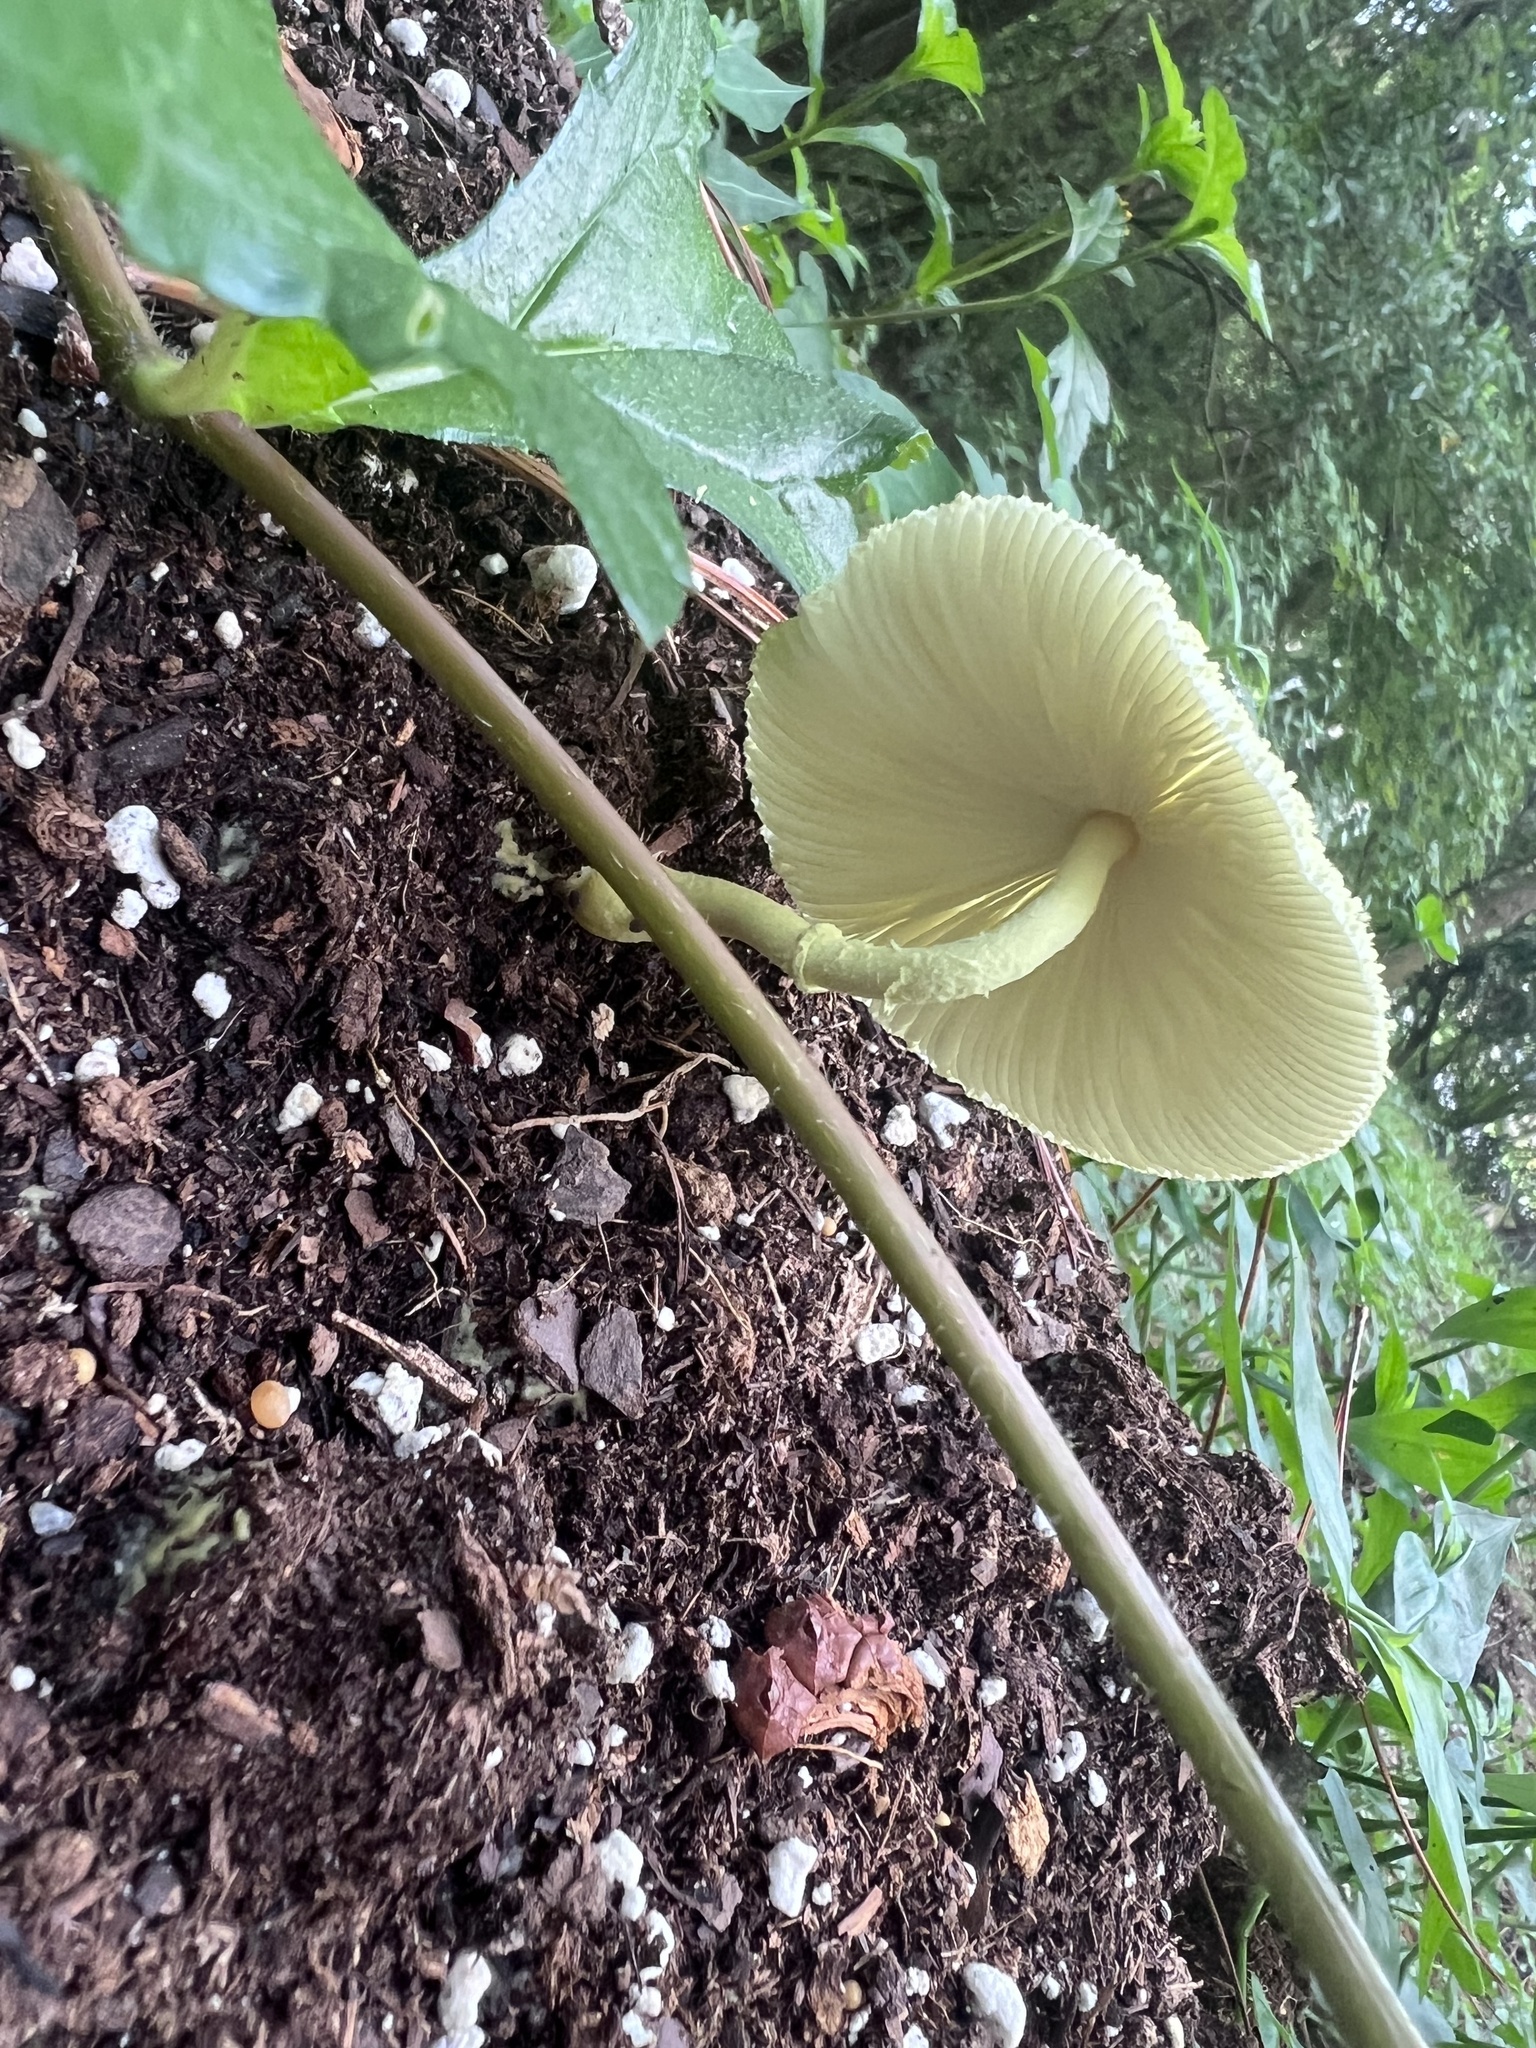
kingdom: Fungi
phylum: Basidiomycota
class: Agaricomycetes
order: Agaricales
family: Agaricaceae
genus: Leucocoprinus
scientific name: Leucocoprinus birnbaumii
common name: Plantpot dapperling
